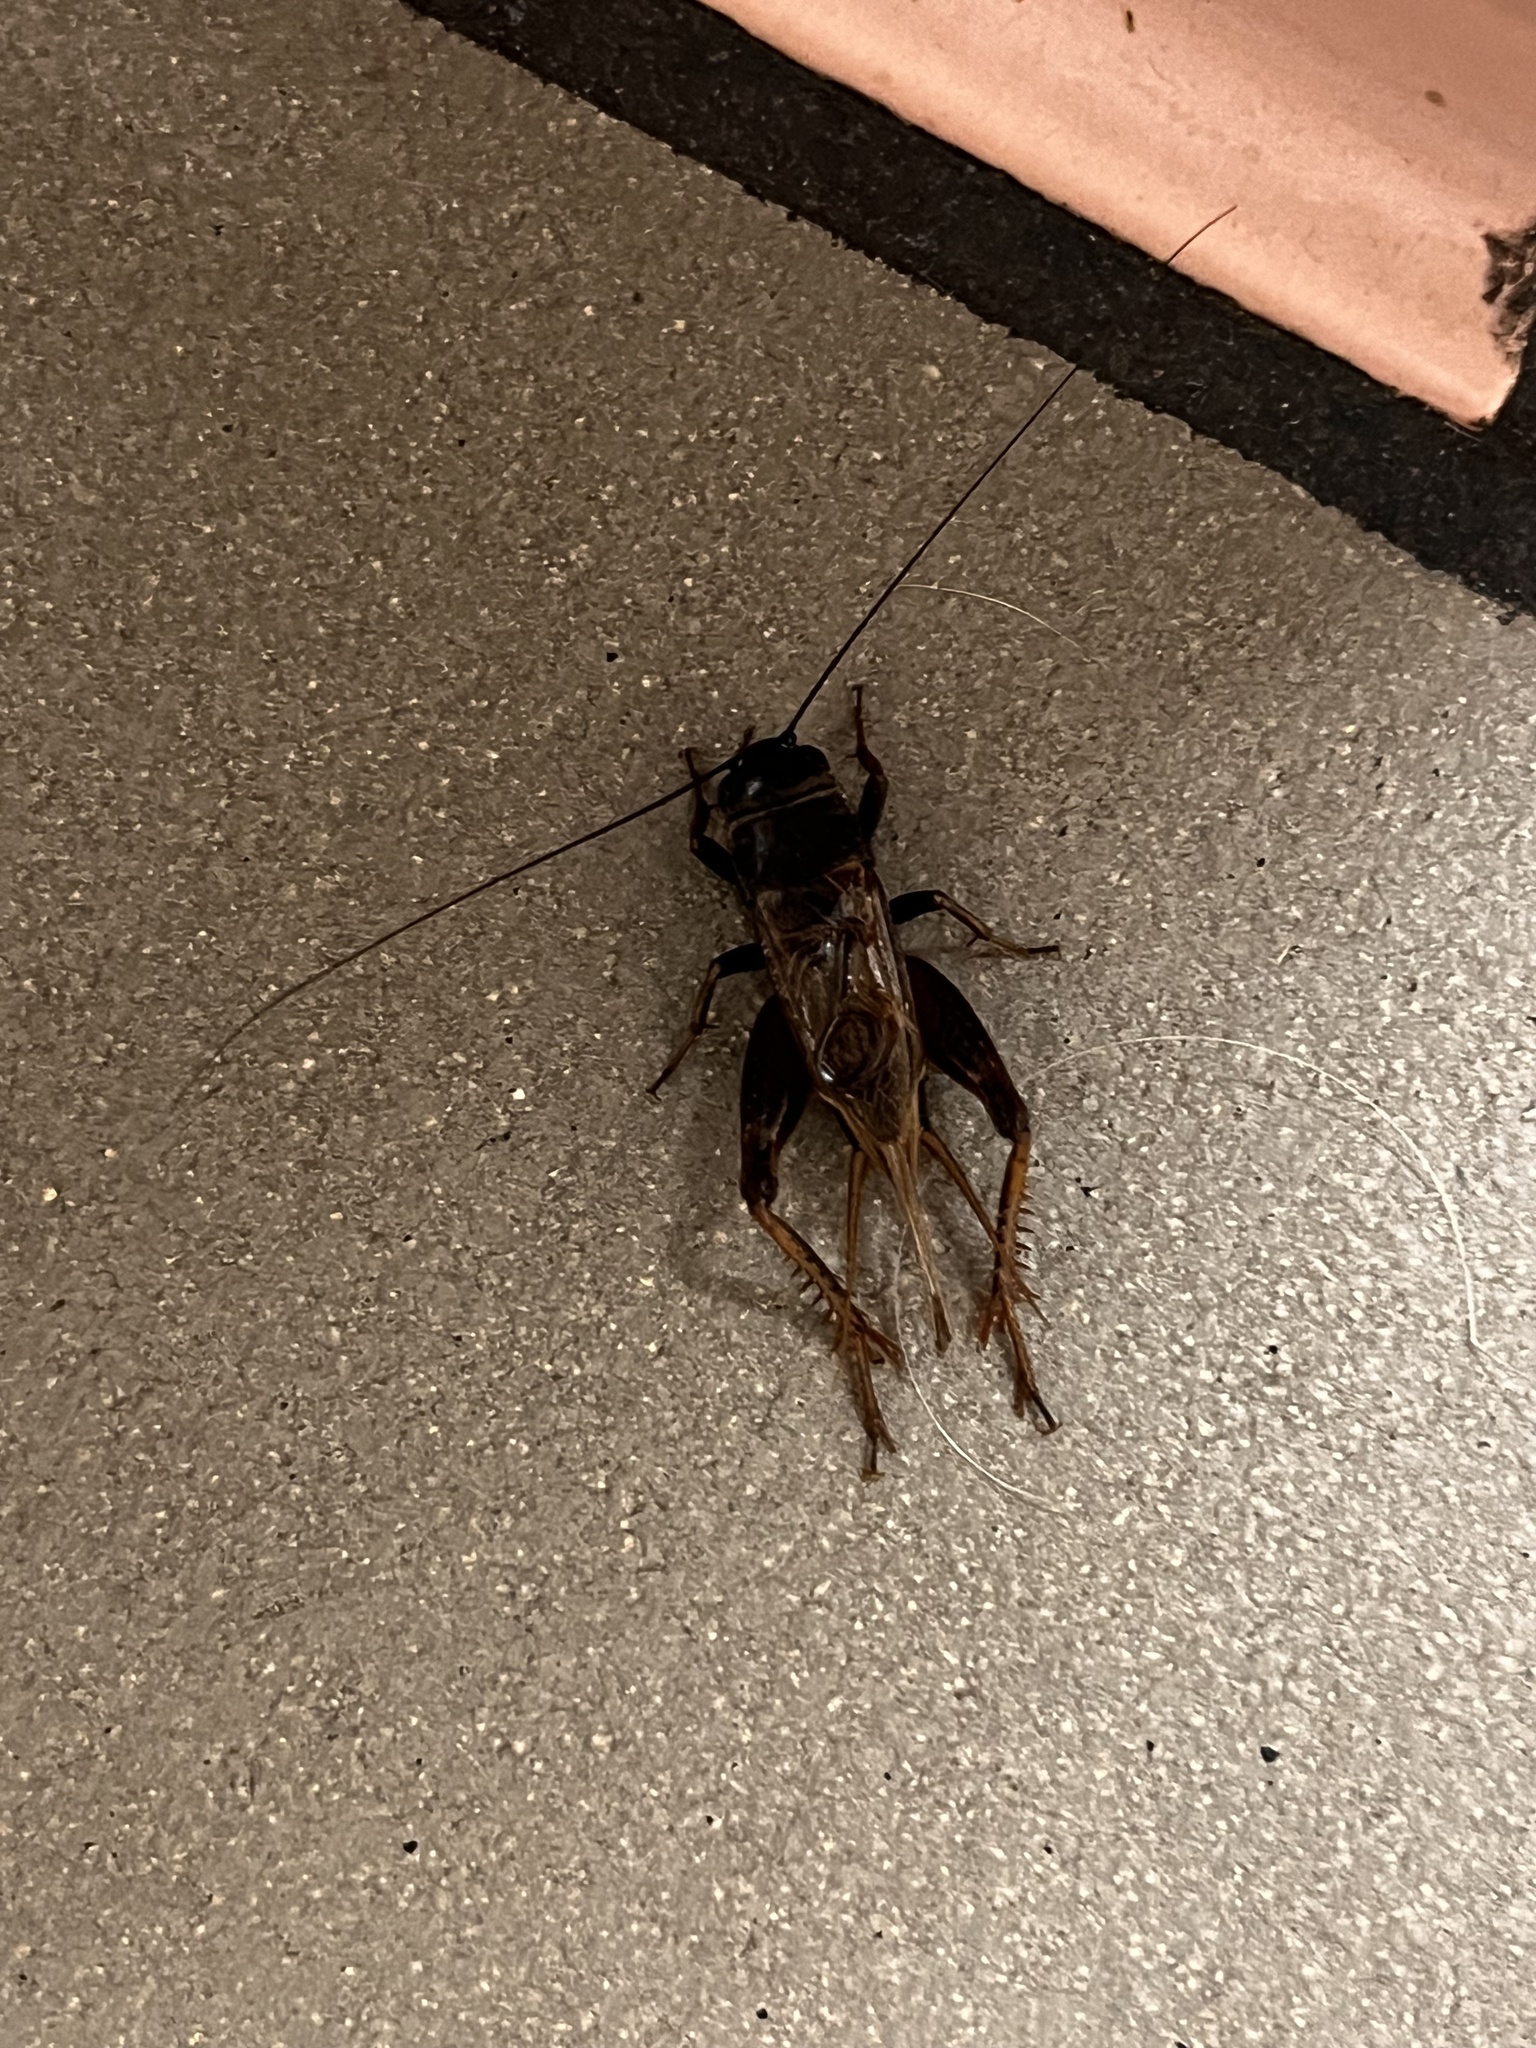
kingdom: Animalia
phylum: Arthropoda
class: Insecta
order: Orthoptera
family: Gryllidae
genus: Gryllus
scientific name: Gryllus
